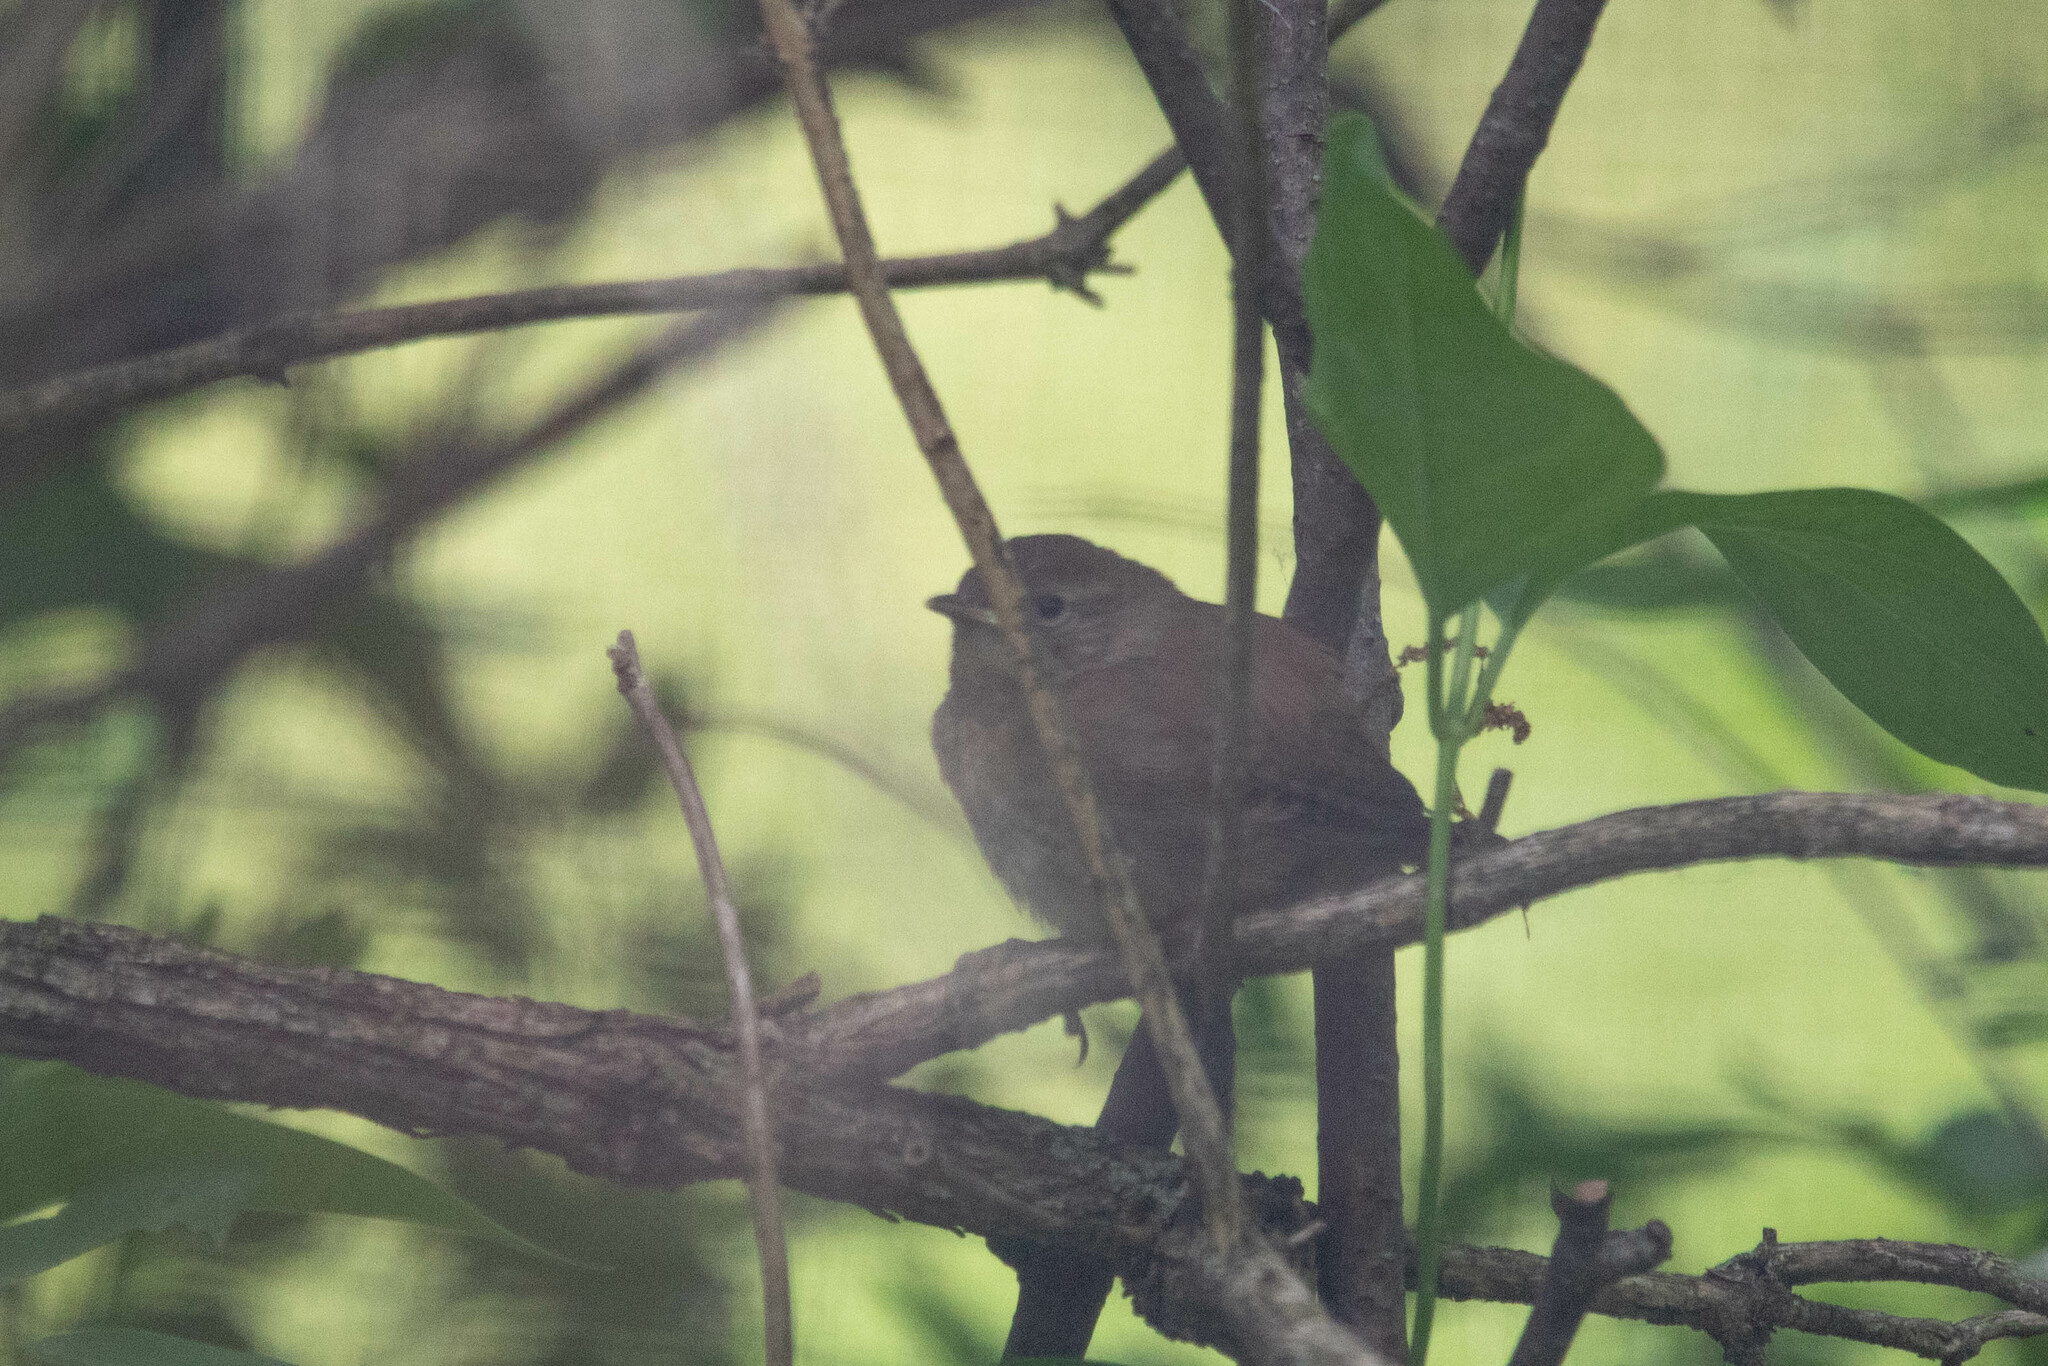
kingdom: Animalia
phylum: Chordata
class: Aves
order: Passeriformes
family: Troglodytidae
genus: Troglodytes
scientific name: Troglodytes aedon
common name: House wren
